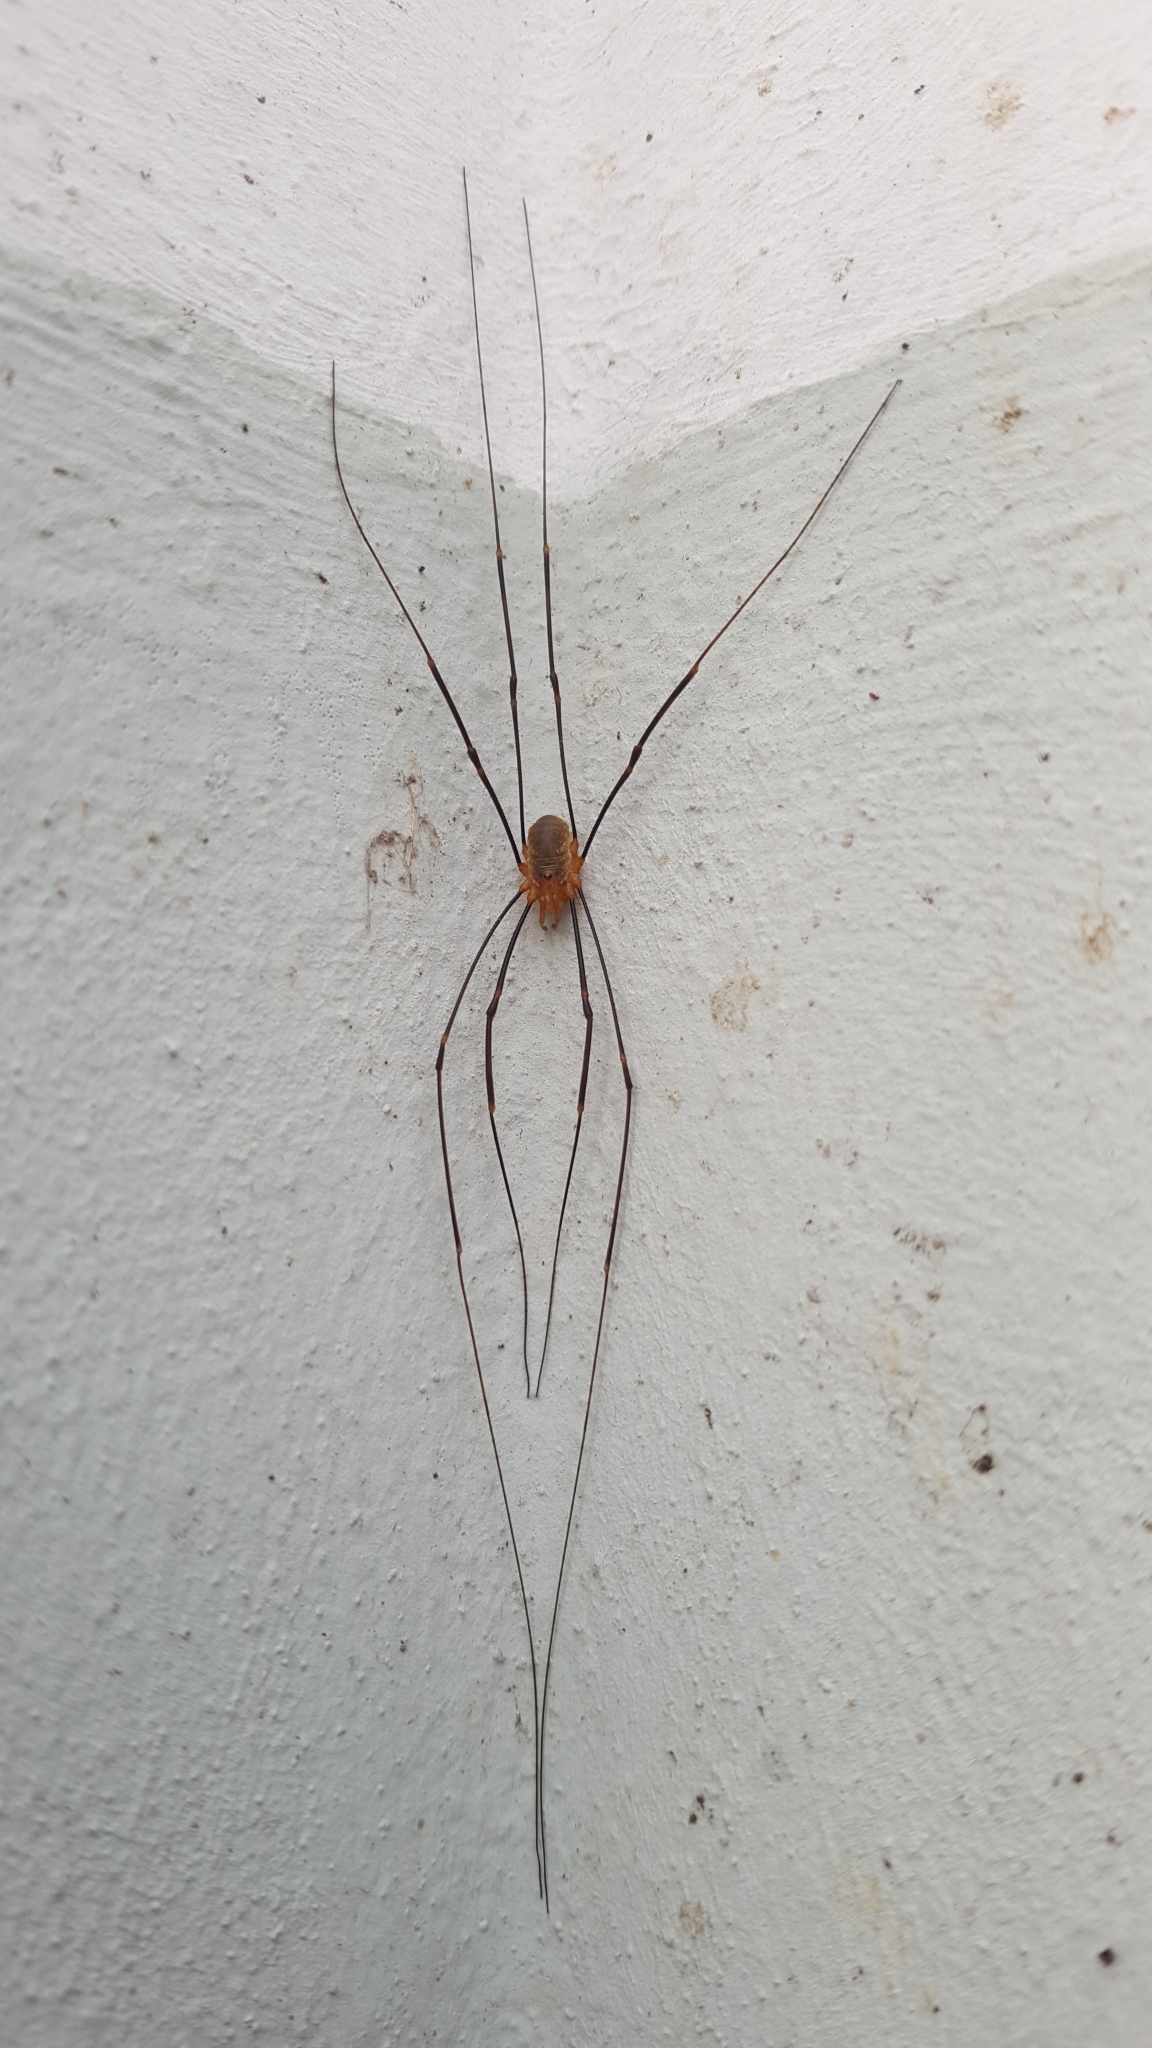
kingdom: Animalia
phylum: Arthropoda
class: Arachnida
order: Opiliones
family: Phalangiidae
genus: Opilio
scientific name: Opilio canestrinii
